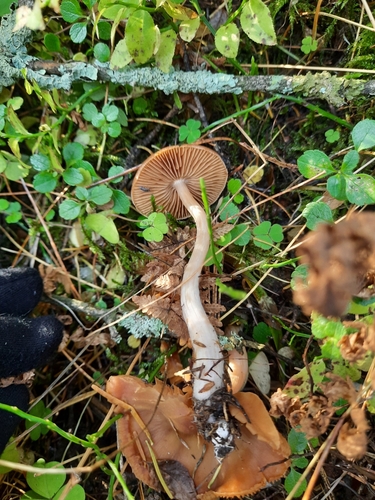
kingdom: Fungi
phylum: Basidiomycota
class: Agaricomycetes
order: Agaricales
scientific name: Agaricales
